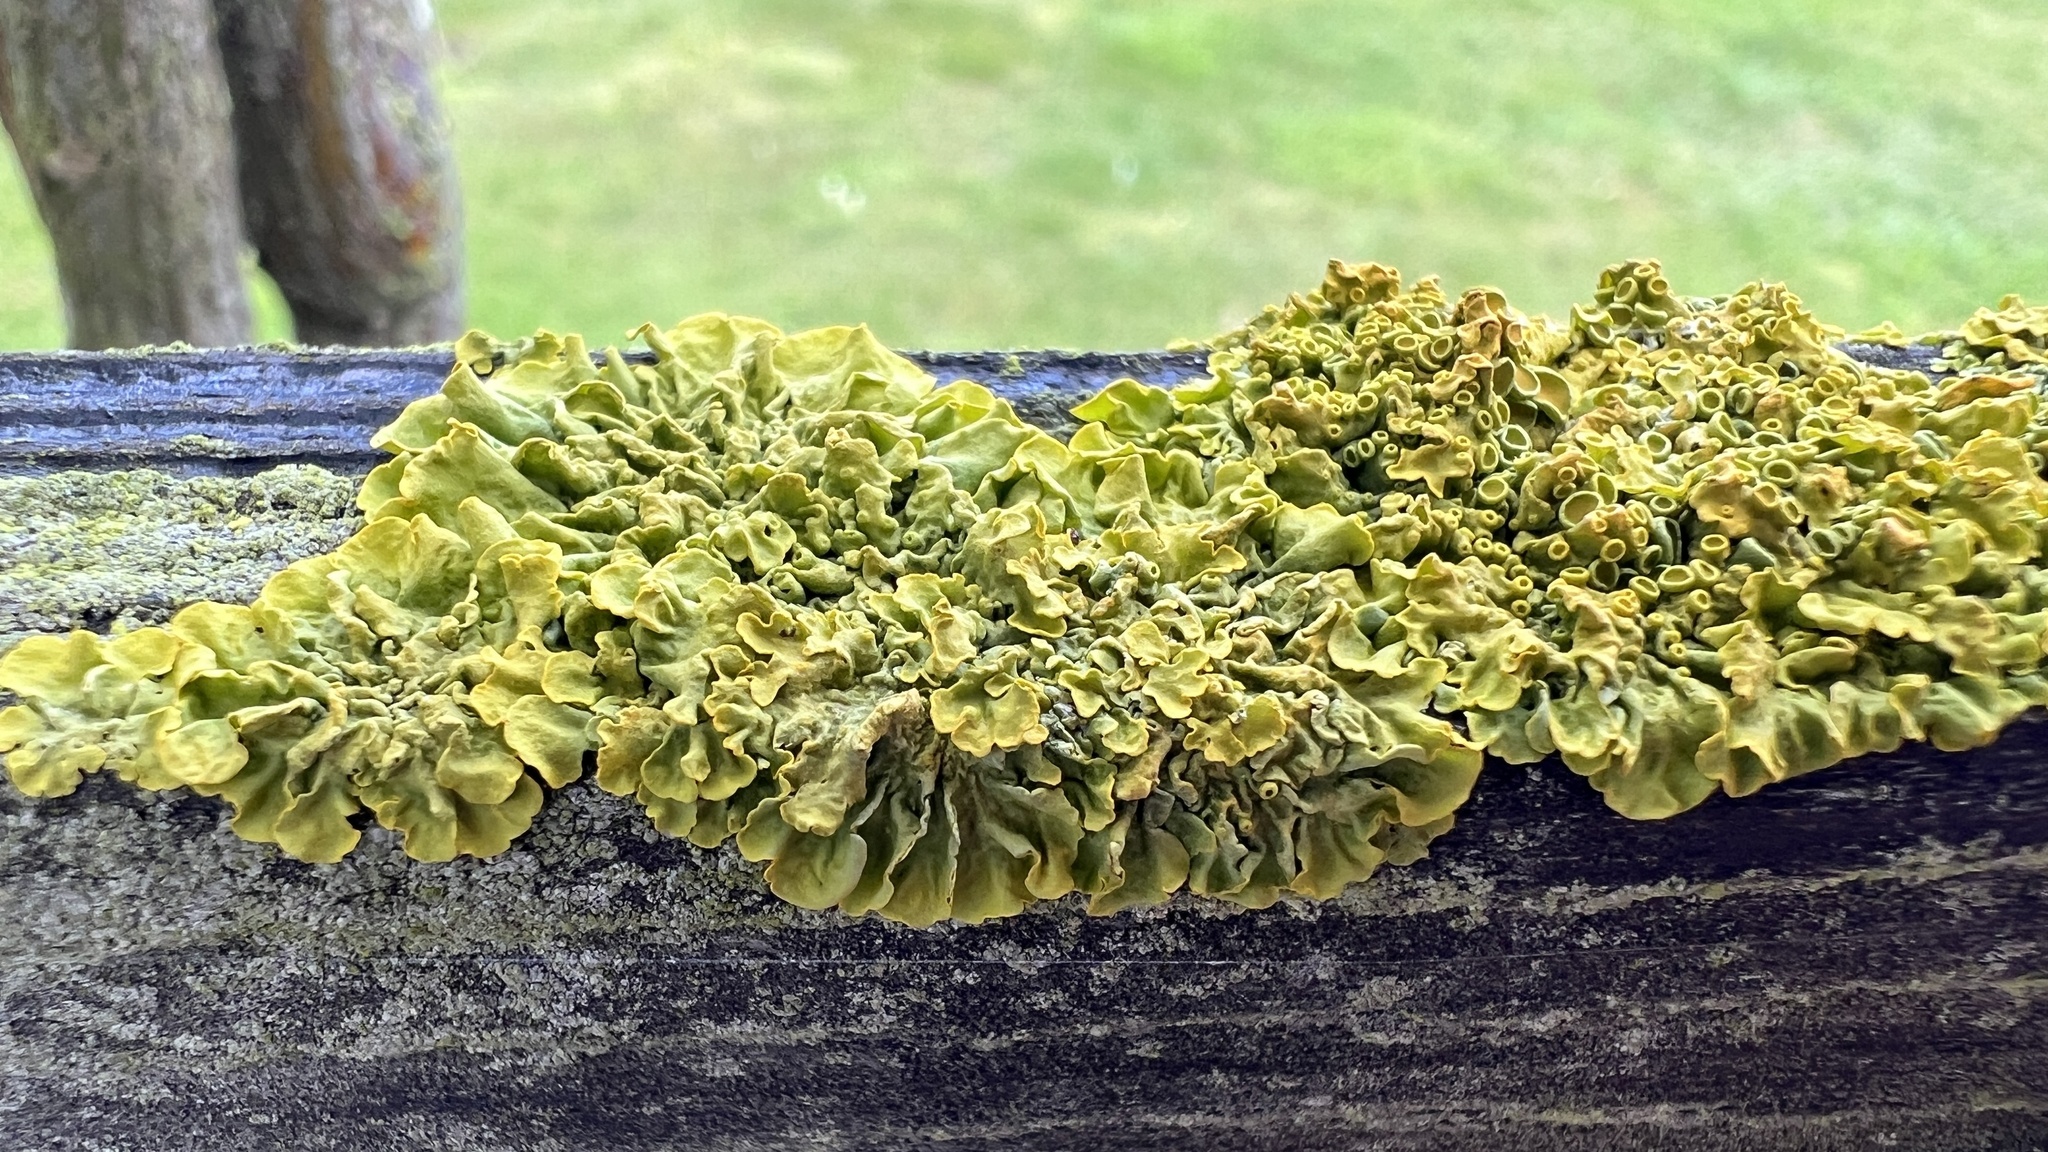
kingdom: Fungi
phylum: Ascomycota
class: Lecanoromycetes
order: Teloschistales
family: Teloschistaceae
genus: Xanthoria
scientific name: Xanthoria parietina
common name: Common orange lichen
